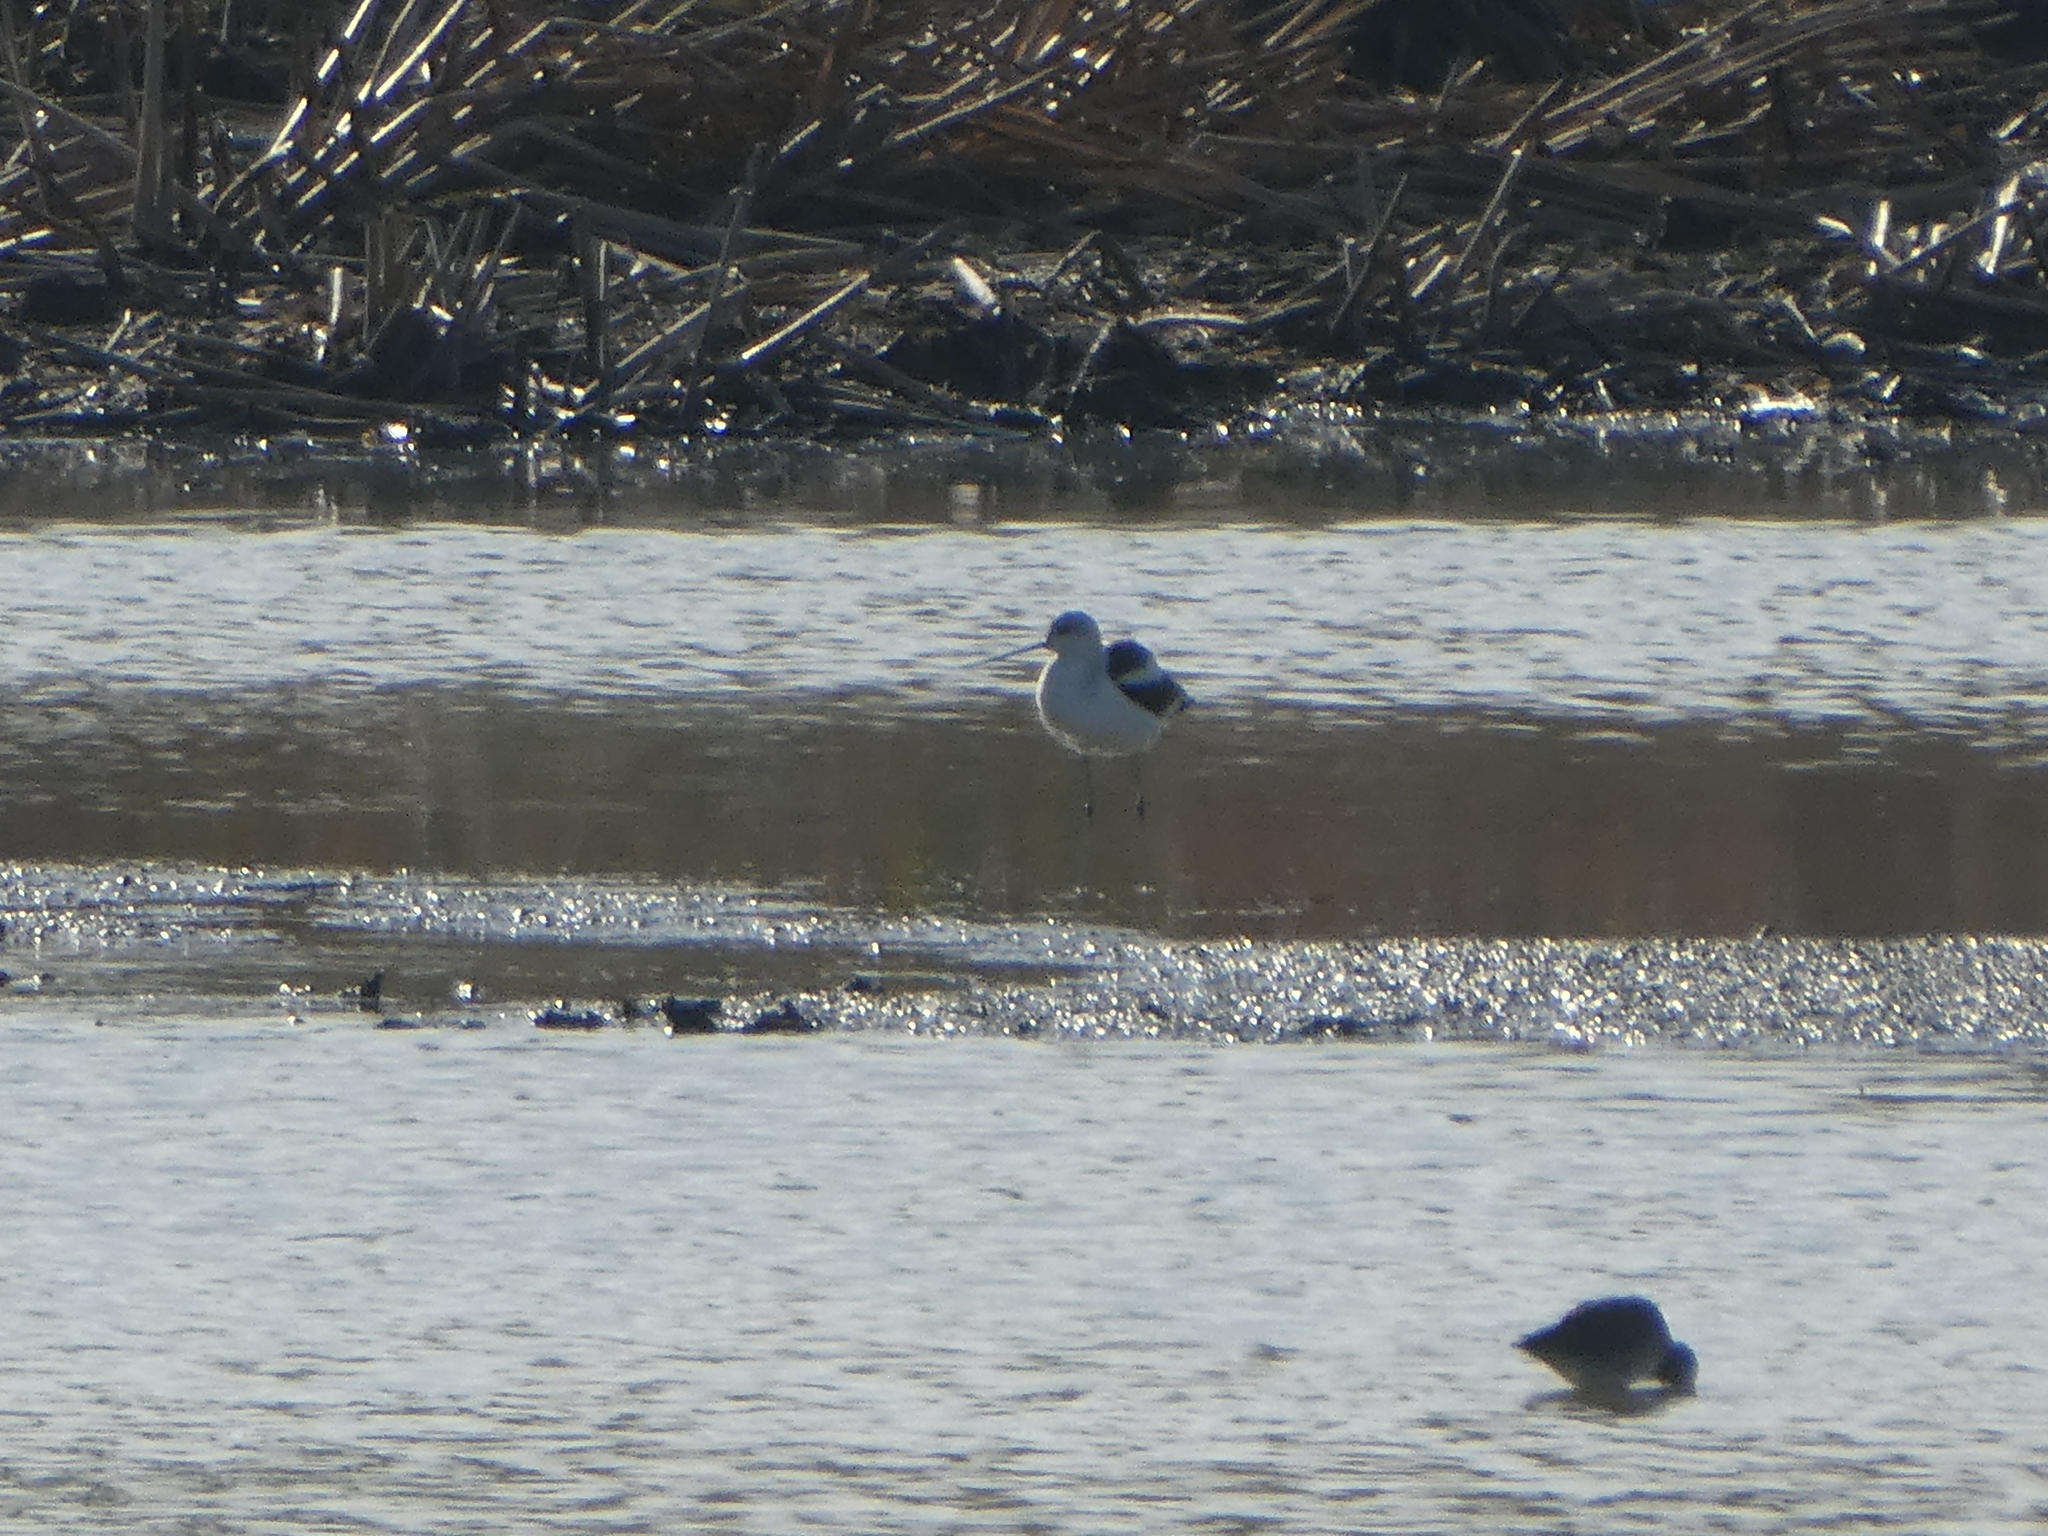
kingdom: Animalia
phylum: Chordata
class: Aves
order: Charadriiformes
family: Recurvirostridae
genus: Recurvirostra
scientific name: Recurvirostra americana
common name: American avocet
